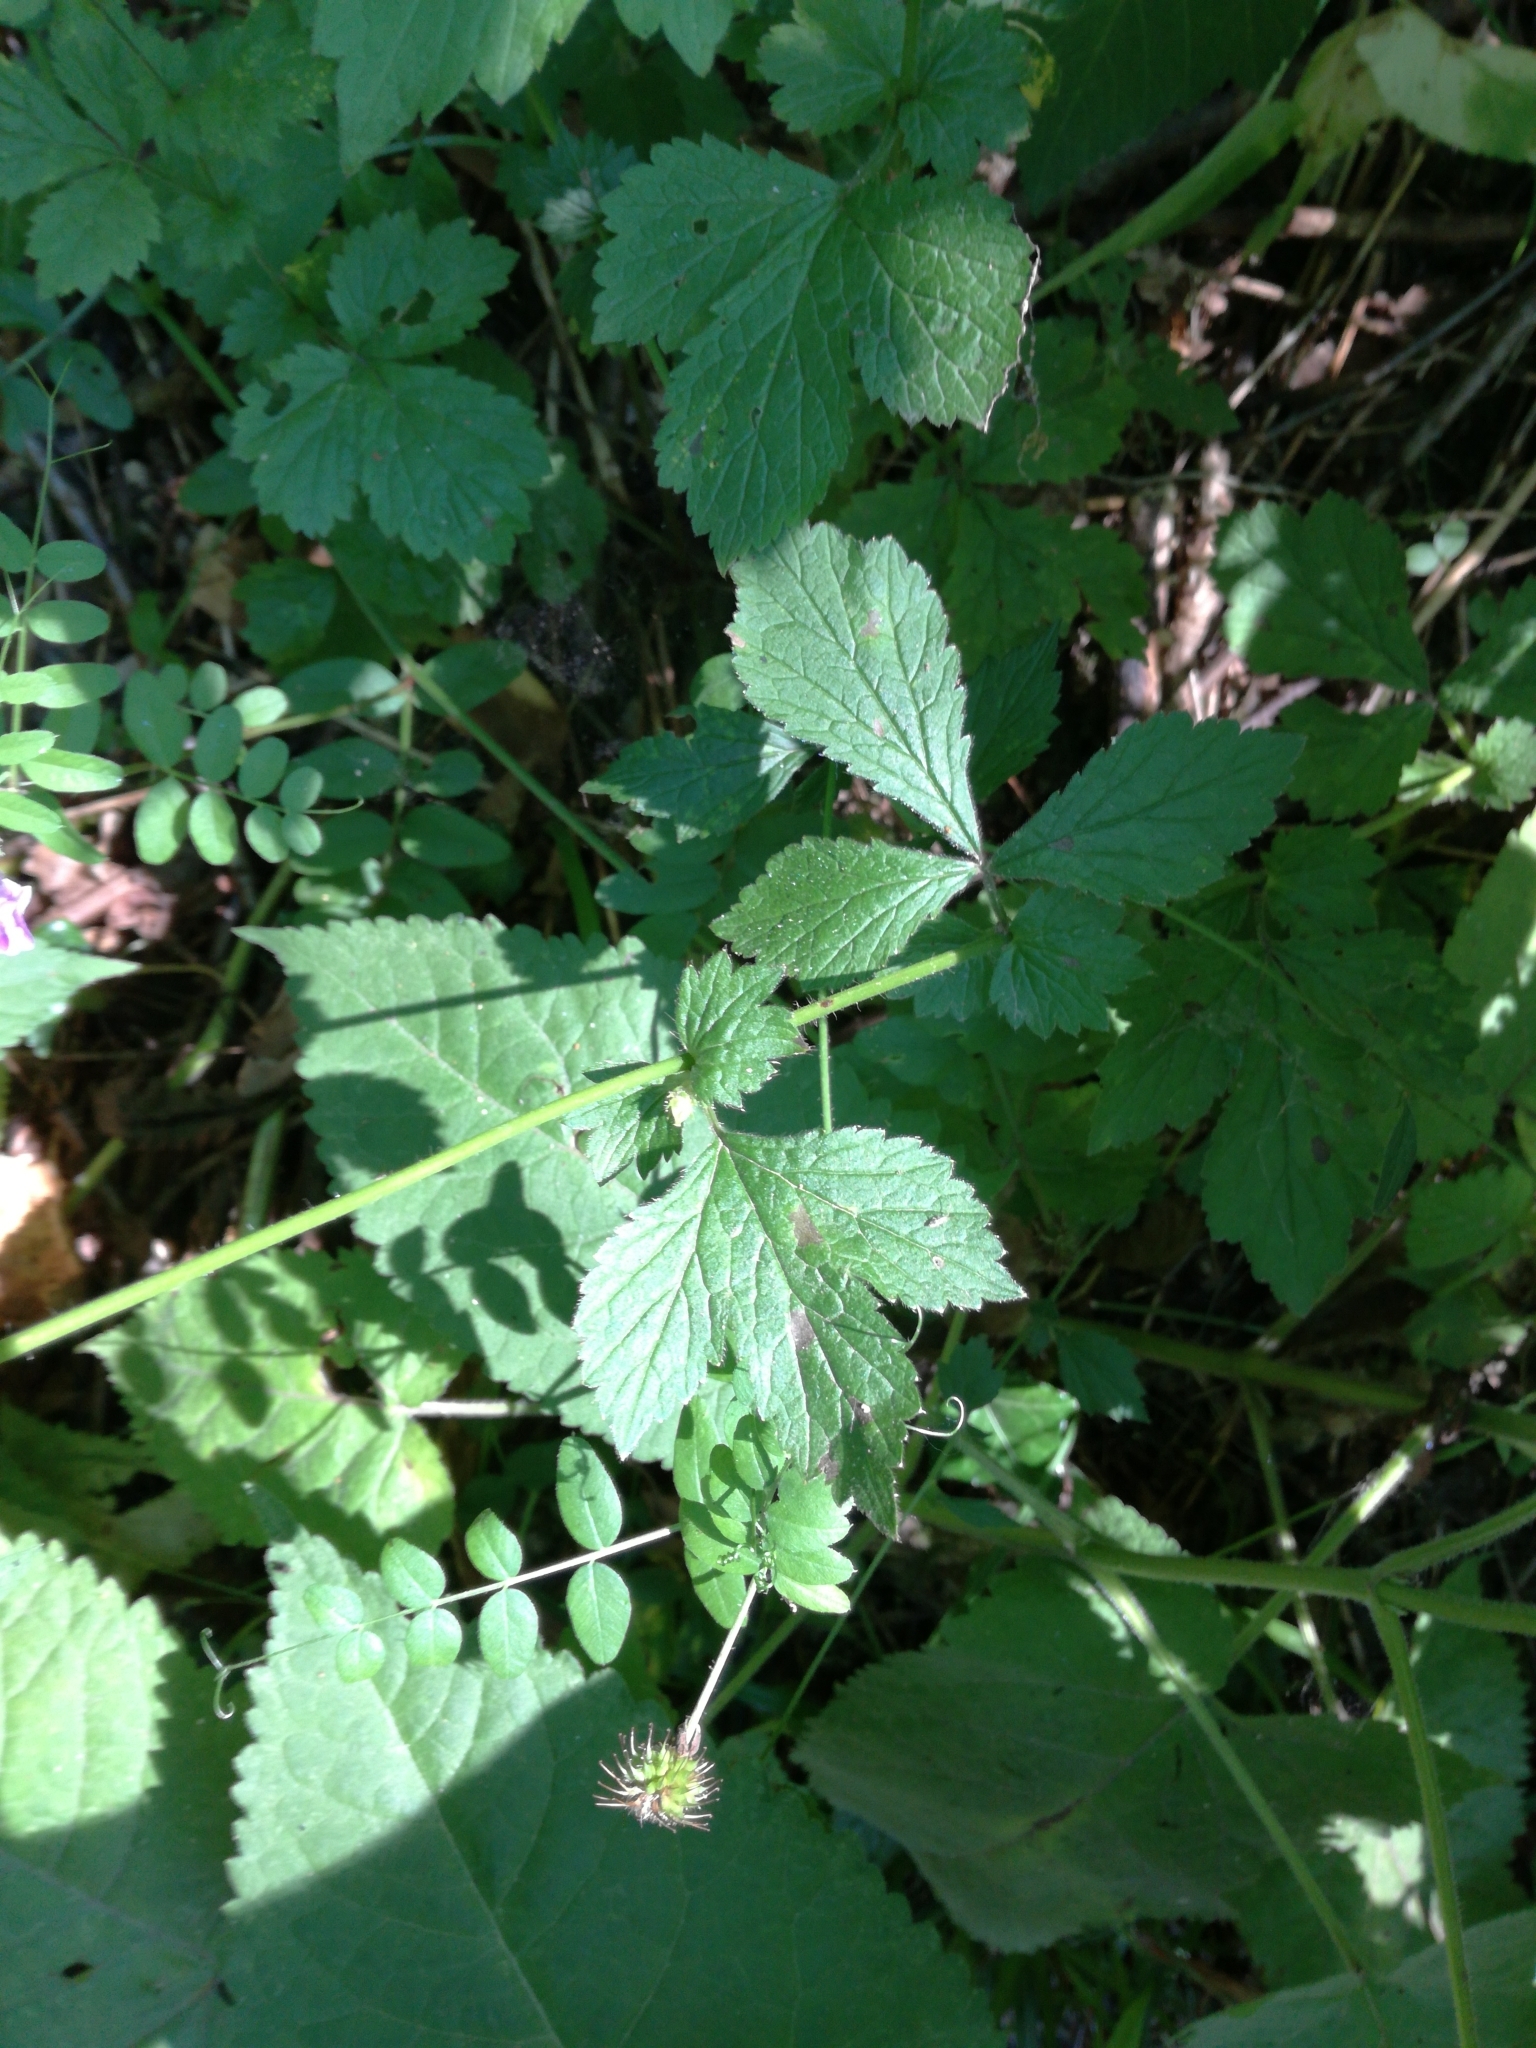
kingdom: Plantae
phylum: Tracheophyta
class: Magnoliopsida
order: Rosales
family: Rosaceae
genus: Geum
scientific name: Geum urbanum
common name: Wood avens
